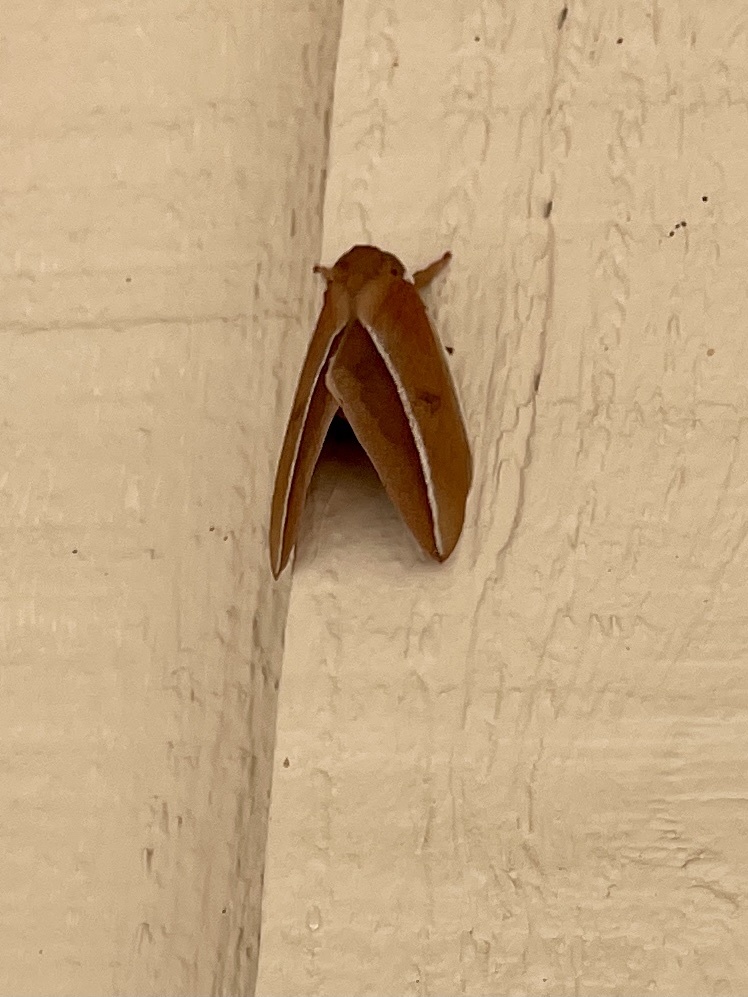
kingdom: Animalia
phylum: Arthropoda
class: Insecta
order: Lepidoptera
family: Saturniidae
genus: Automeris
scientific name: Automeris zephyria
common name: Zephyr eyed silkmoth
